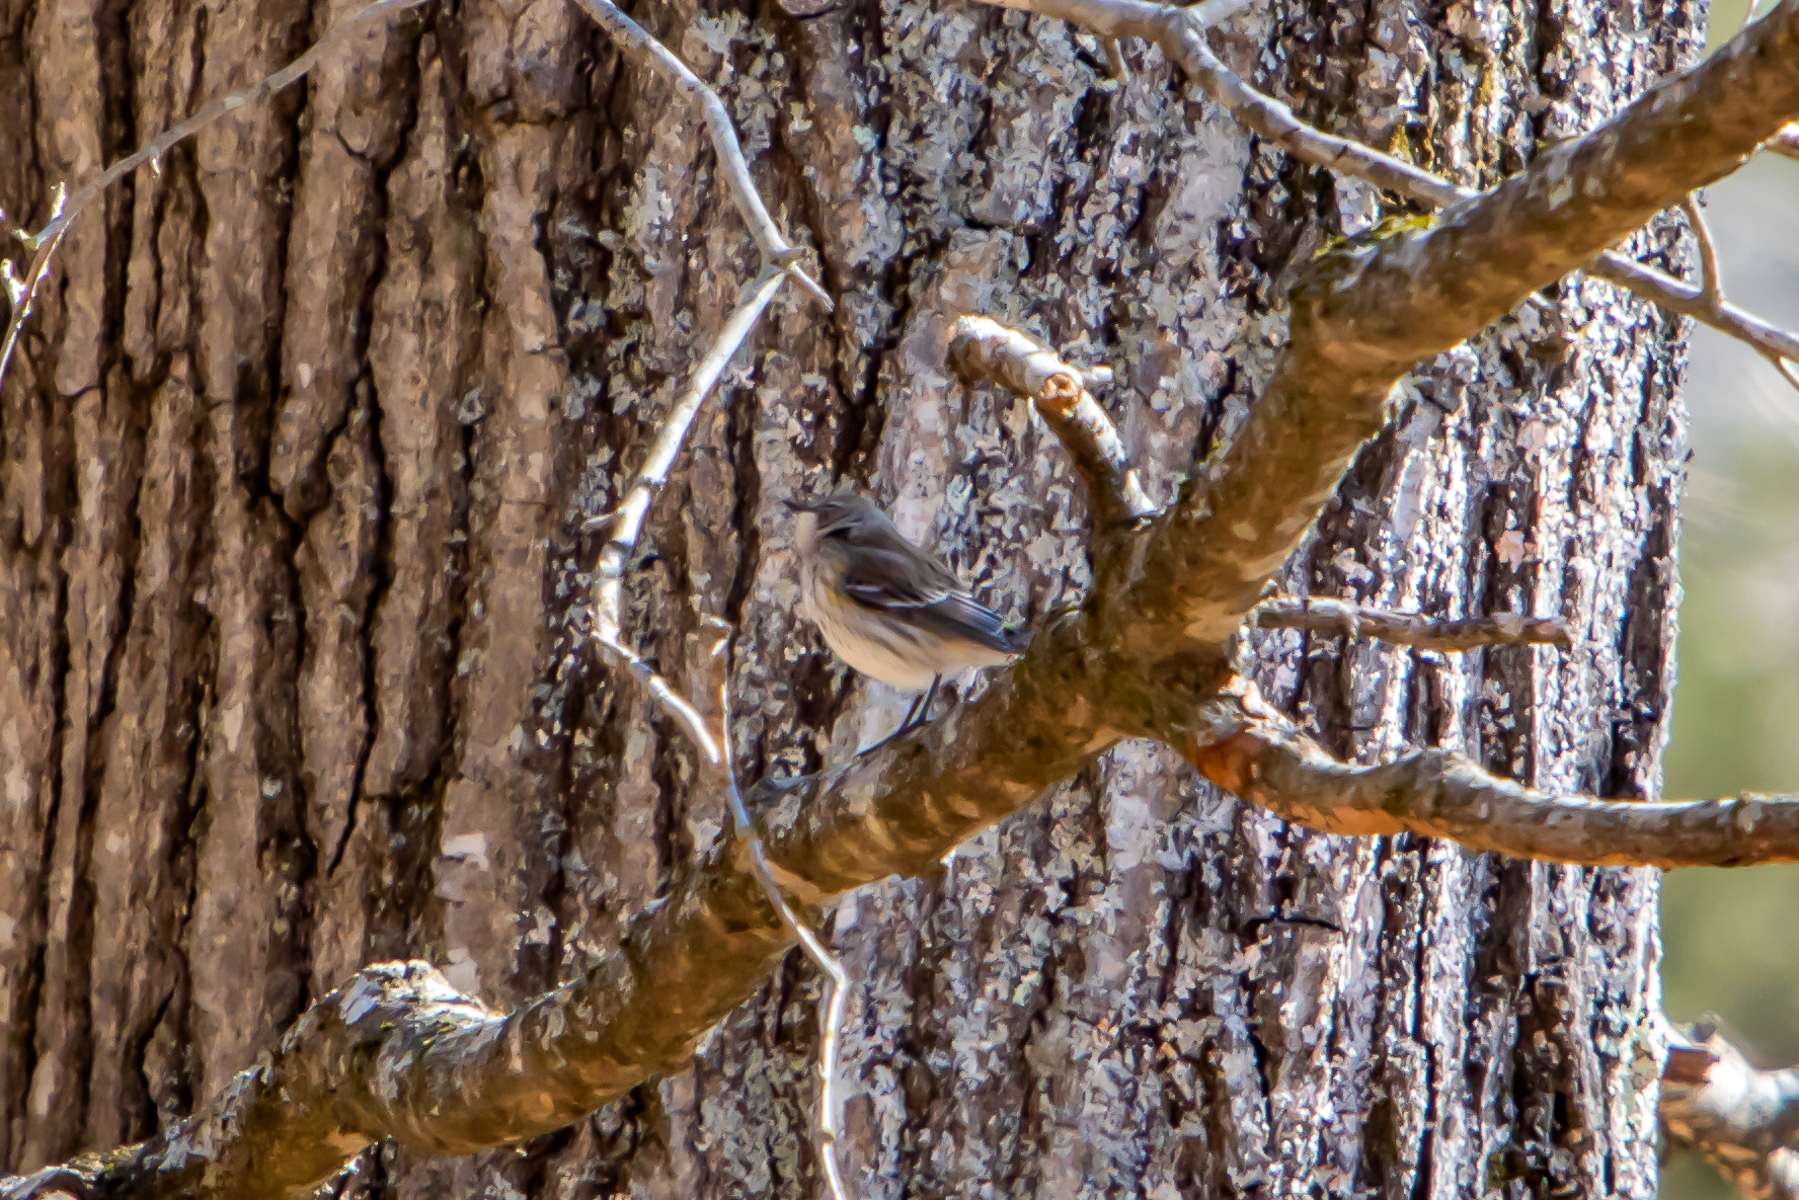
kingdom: Animalia
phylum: Chordata
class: Aves
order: Passeriformes
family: Parulidae
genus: Setophaga
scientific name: Setophaga coronata
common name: Myrtle warbler
